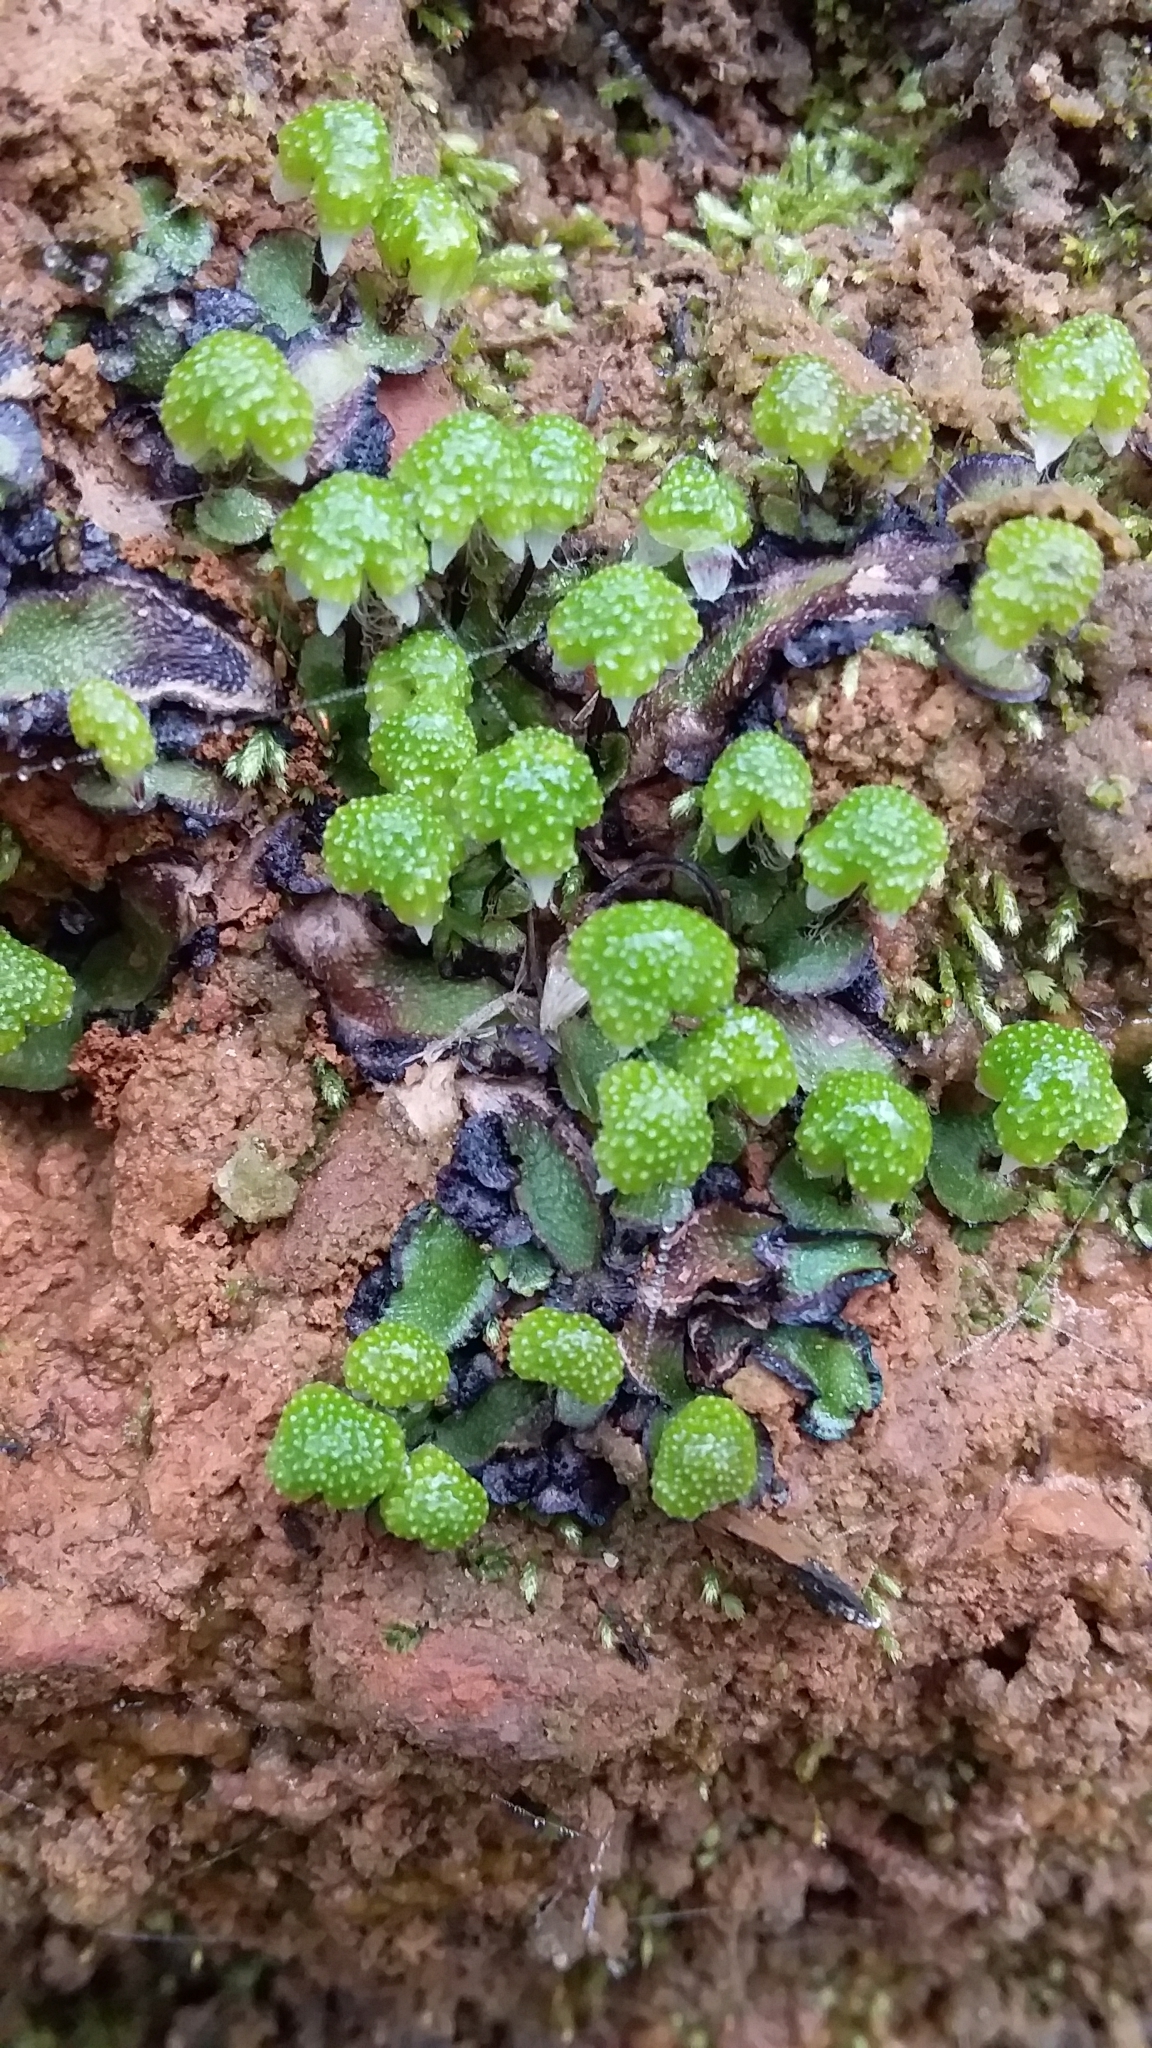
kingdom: Plantae
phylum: Marchantiophyta
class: Marchantiopsida
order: Marchantiales
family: Aytoniaceae
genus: Asterella
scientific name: Asterella drummondii
